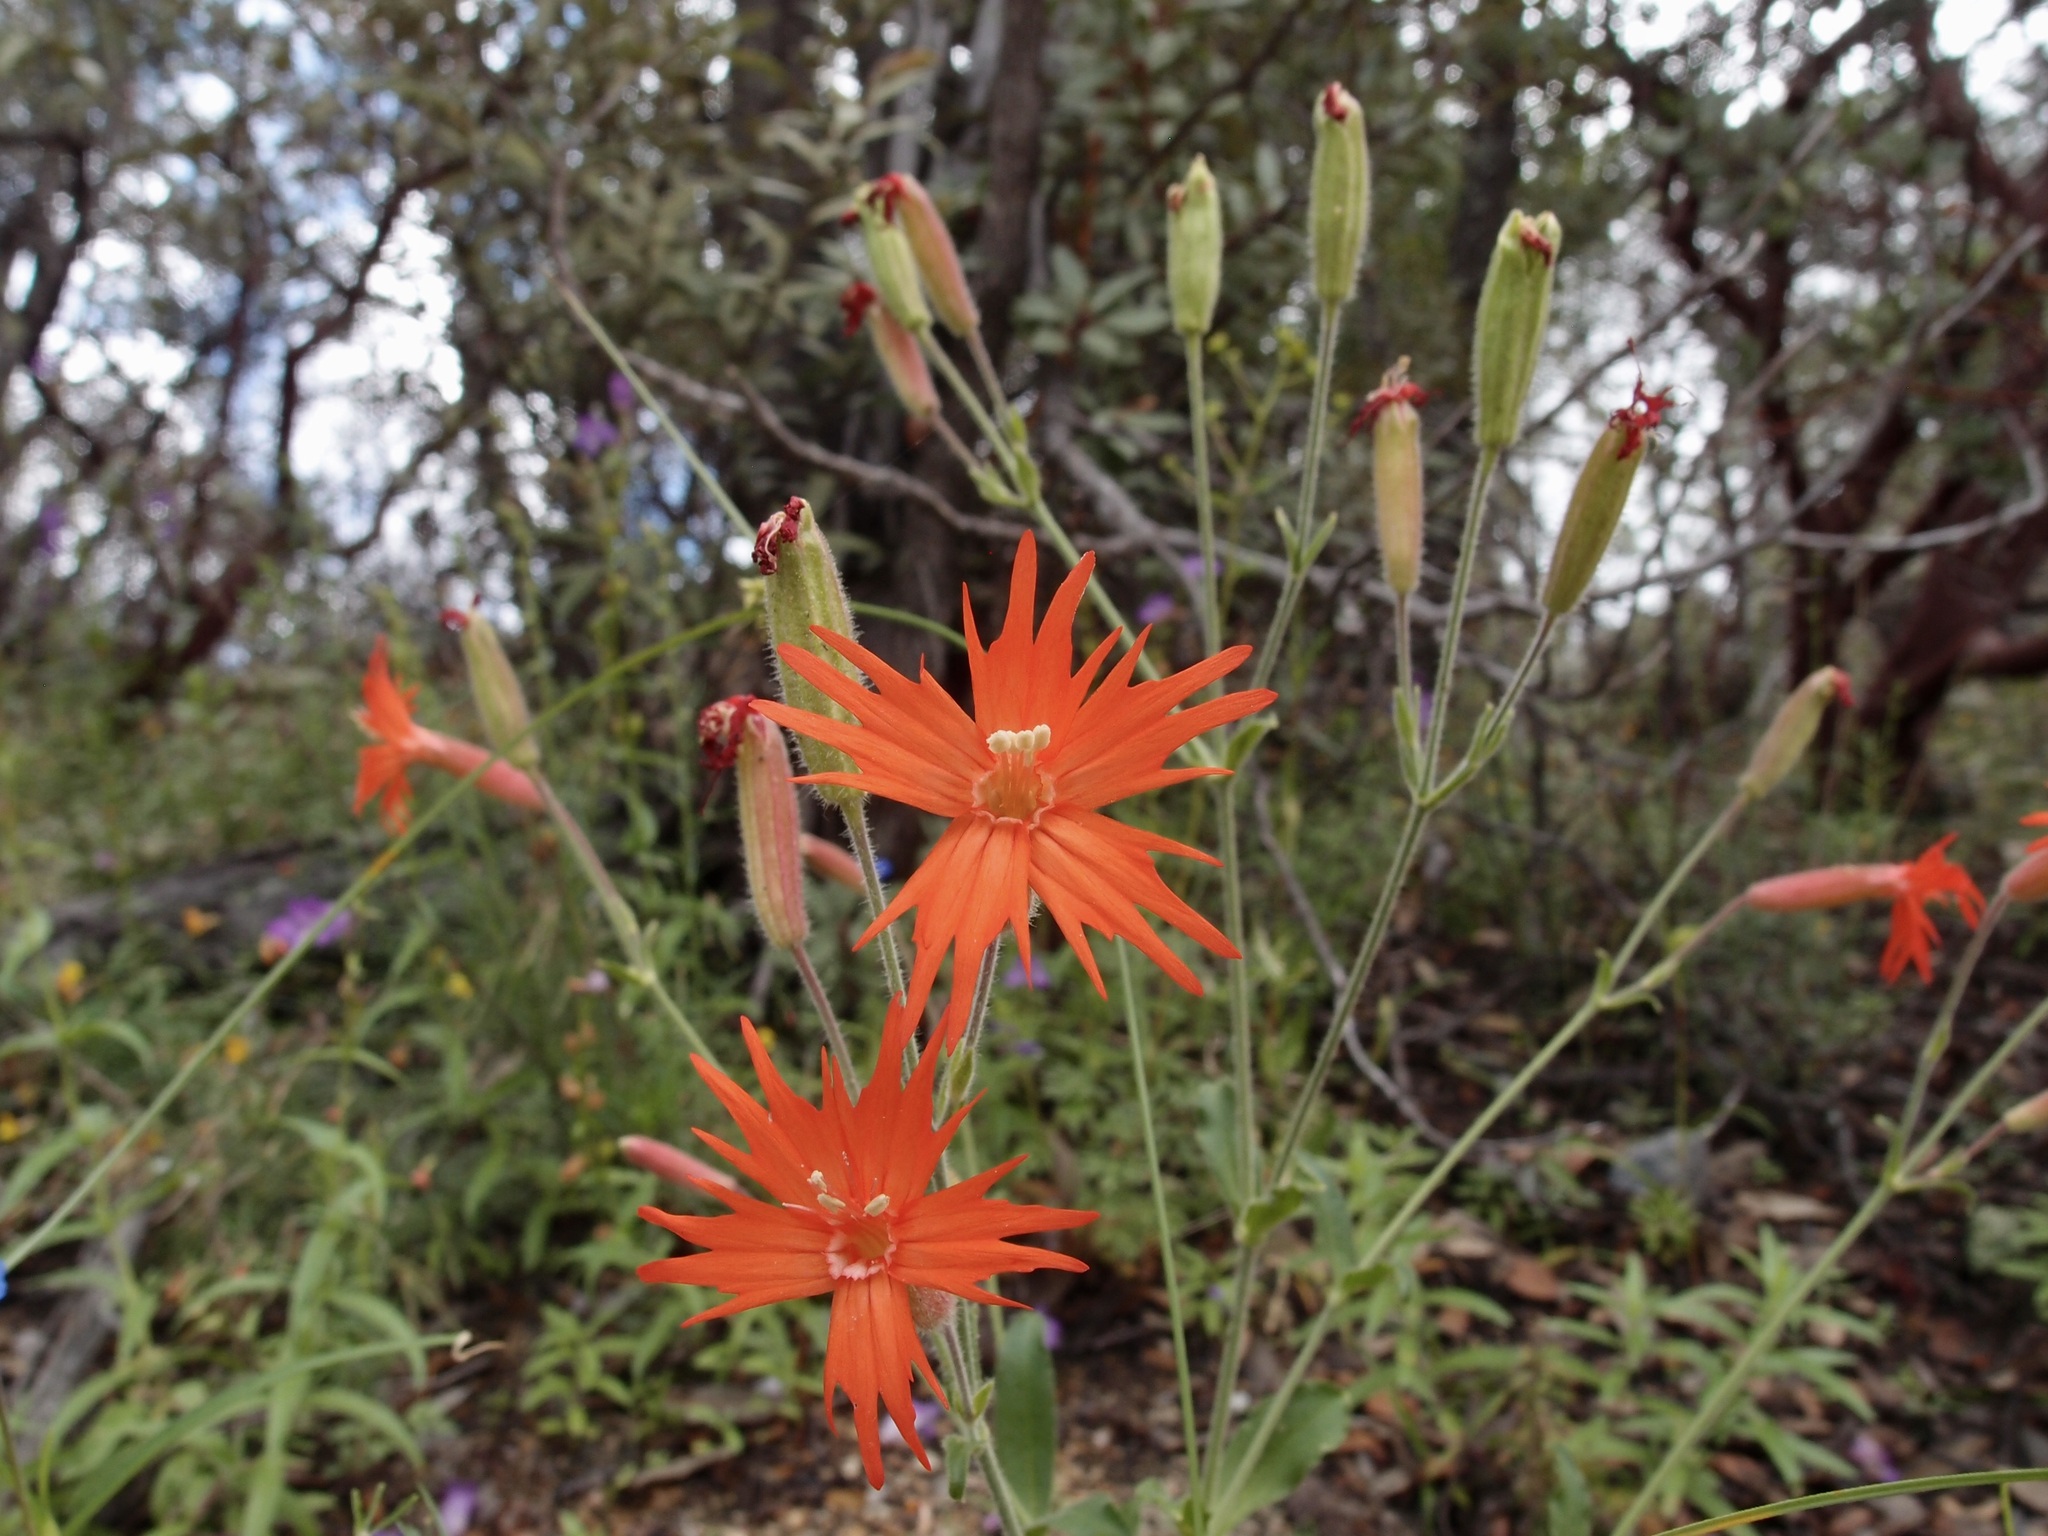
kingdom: Plantae
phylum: Tracheophyta
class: Magnoliopsida
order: Caryophyllales
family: Caryophyllaceae
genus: Silene
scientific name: Silene laciniata
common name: Indian-pink
